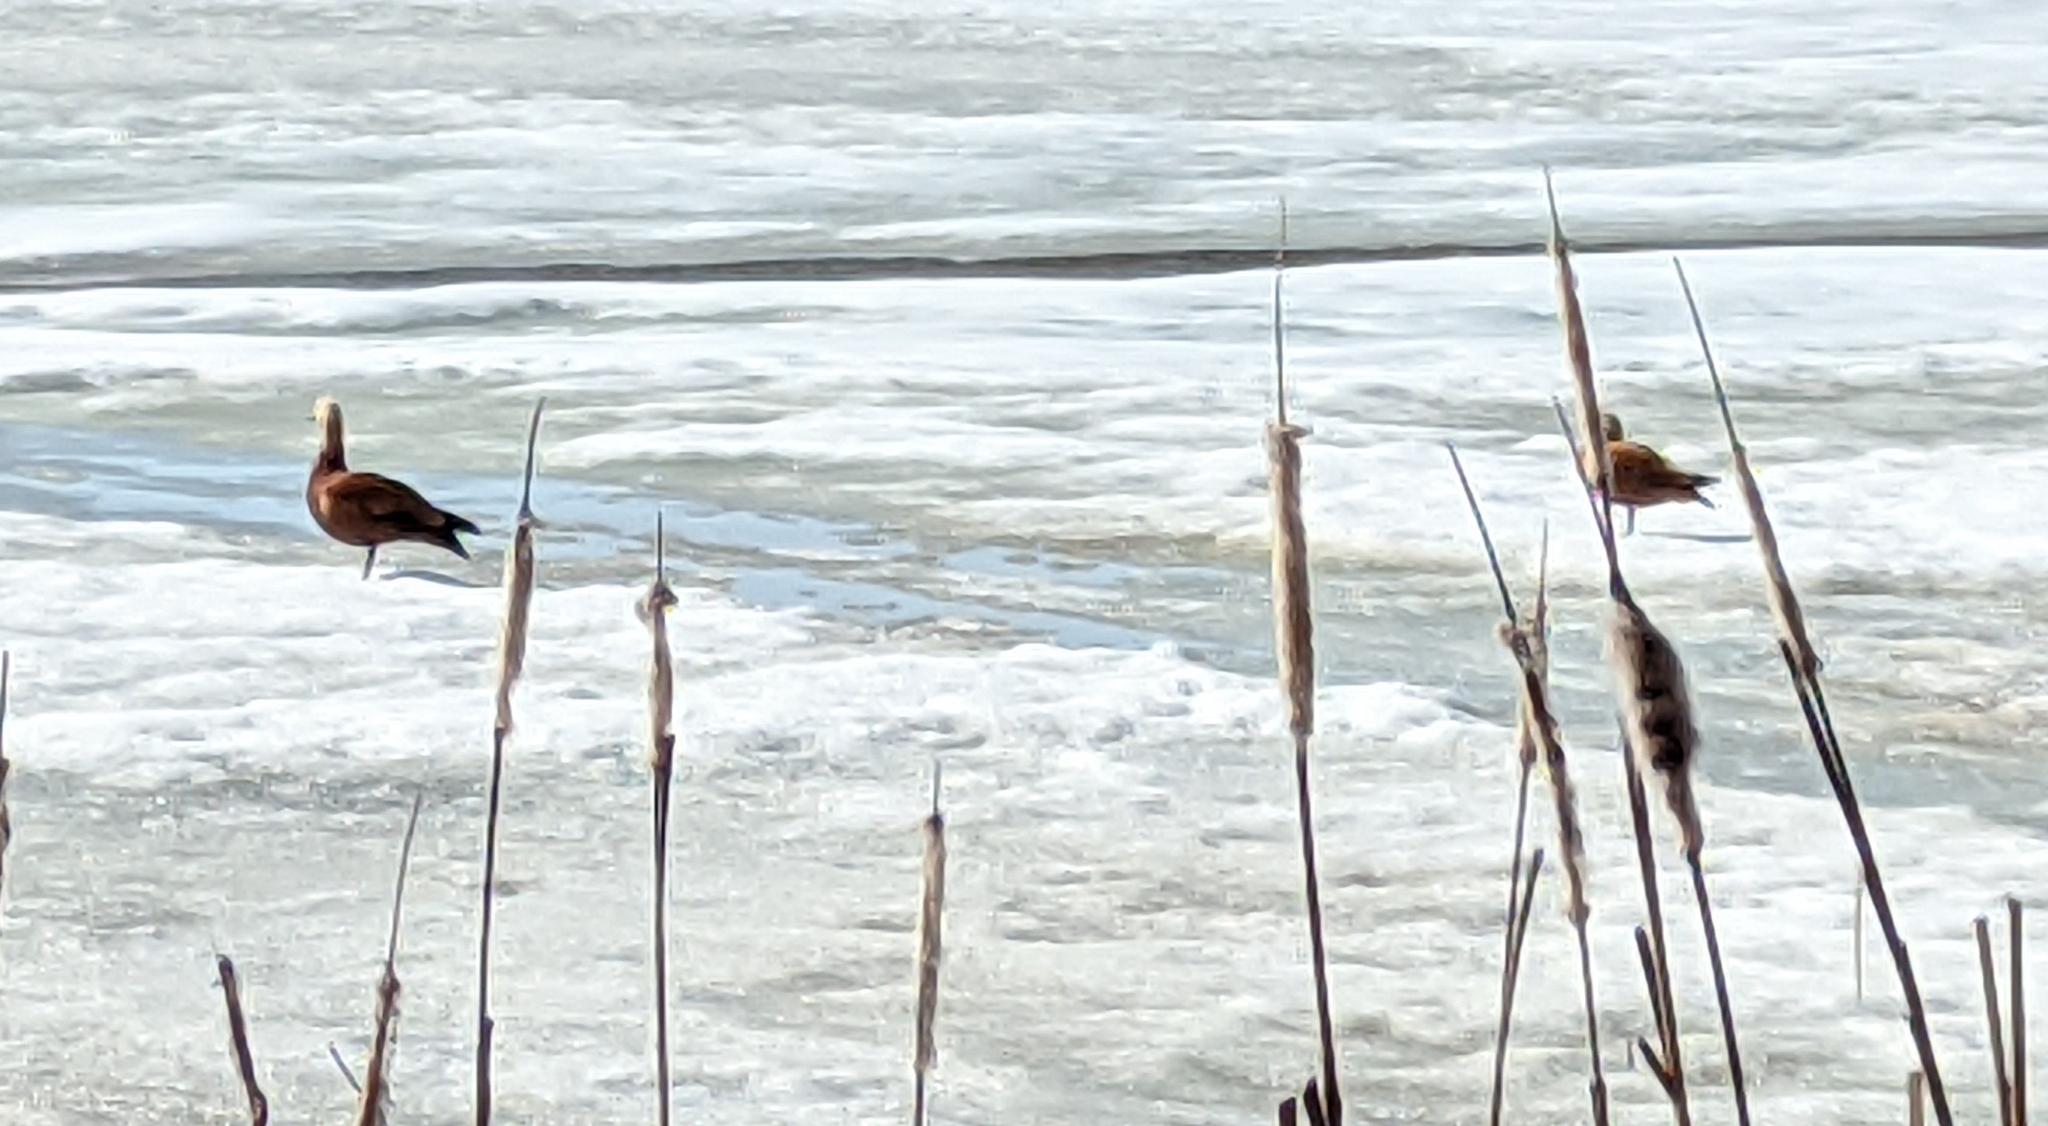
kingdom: Animalia
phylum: Chordata
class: Aves
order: Anseriformes
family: Anatidae
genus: Tadorna
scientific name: Tadorna ferruginea
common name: Ruddy shelduck
